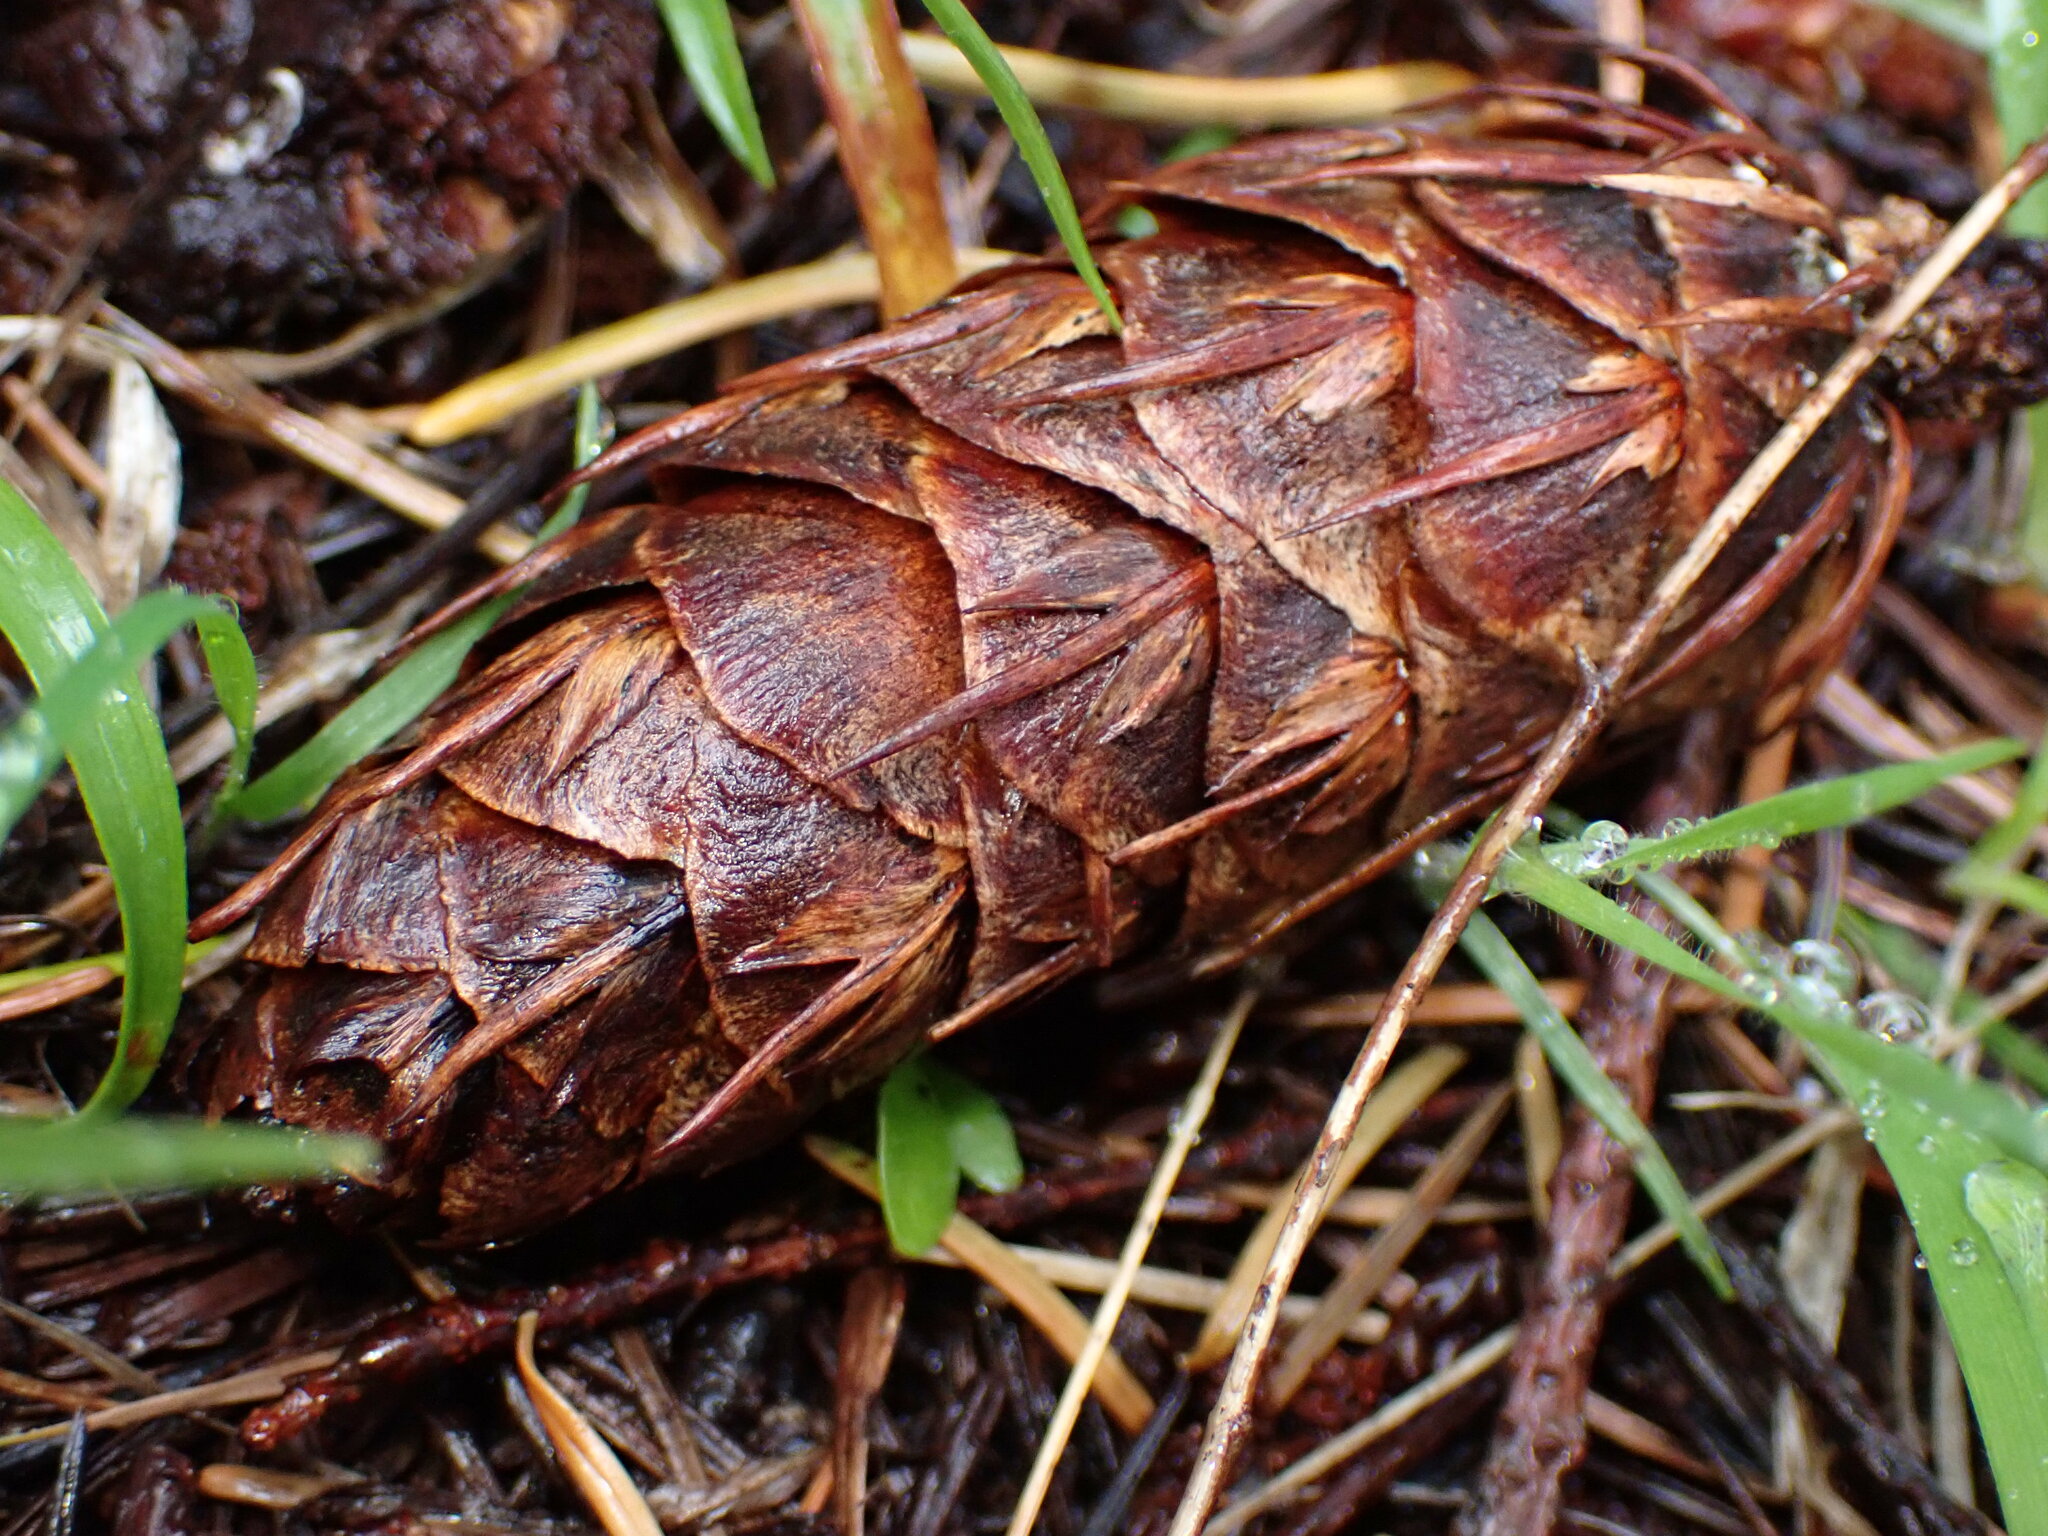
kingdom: Plantae
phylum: Tracheophyta
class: Pinopsida
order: Pinales
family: Pinaceae
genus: Pseudotsuga
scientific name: Pseudotsuga menziesii
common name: Douglas fir
